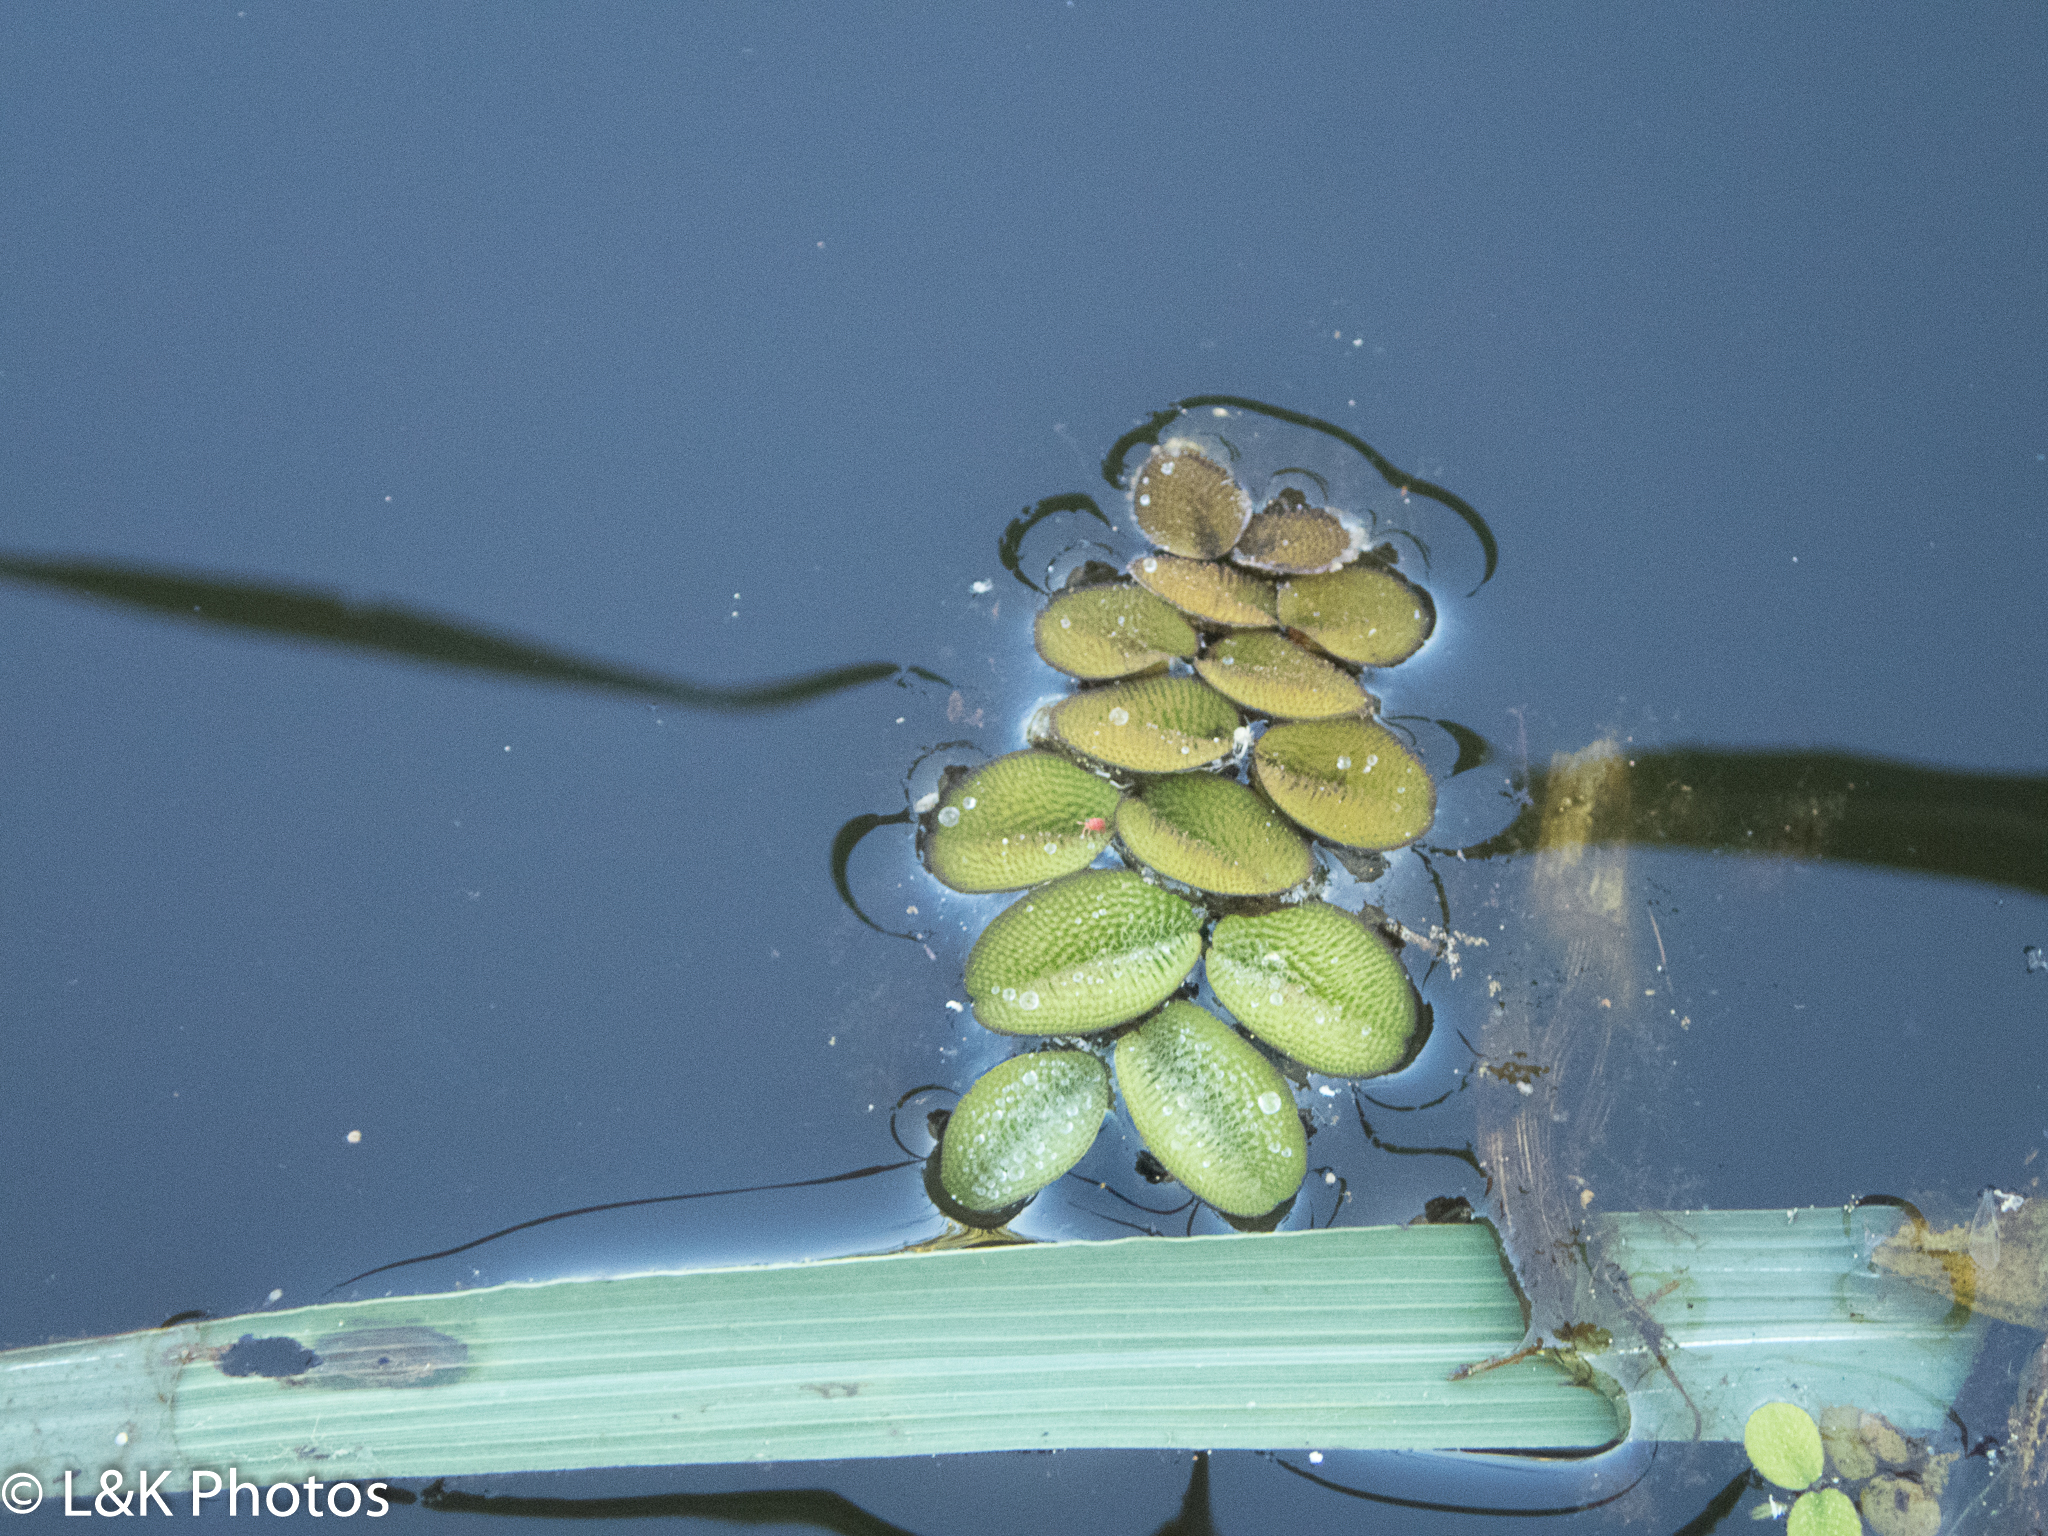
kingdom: Plantae
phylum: Tracheophyta
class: Polypodiopsida
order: Salviniales
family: Salviniaceae
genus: Salvinia
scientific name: Salvinia molesta
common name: Kariba weed
